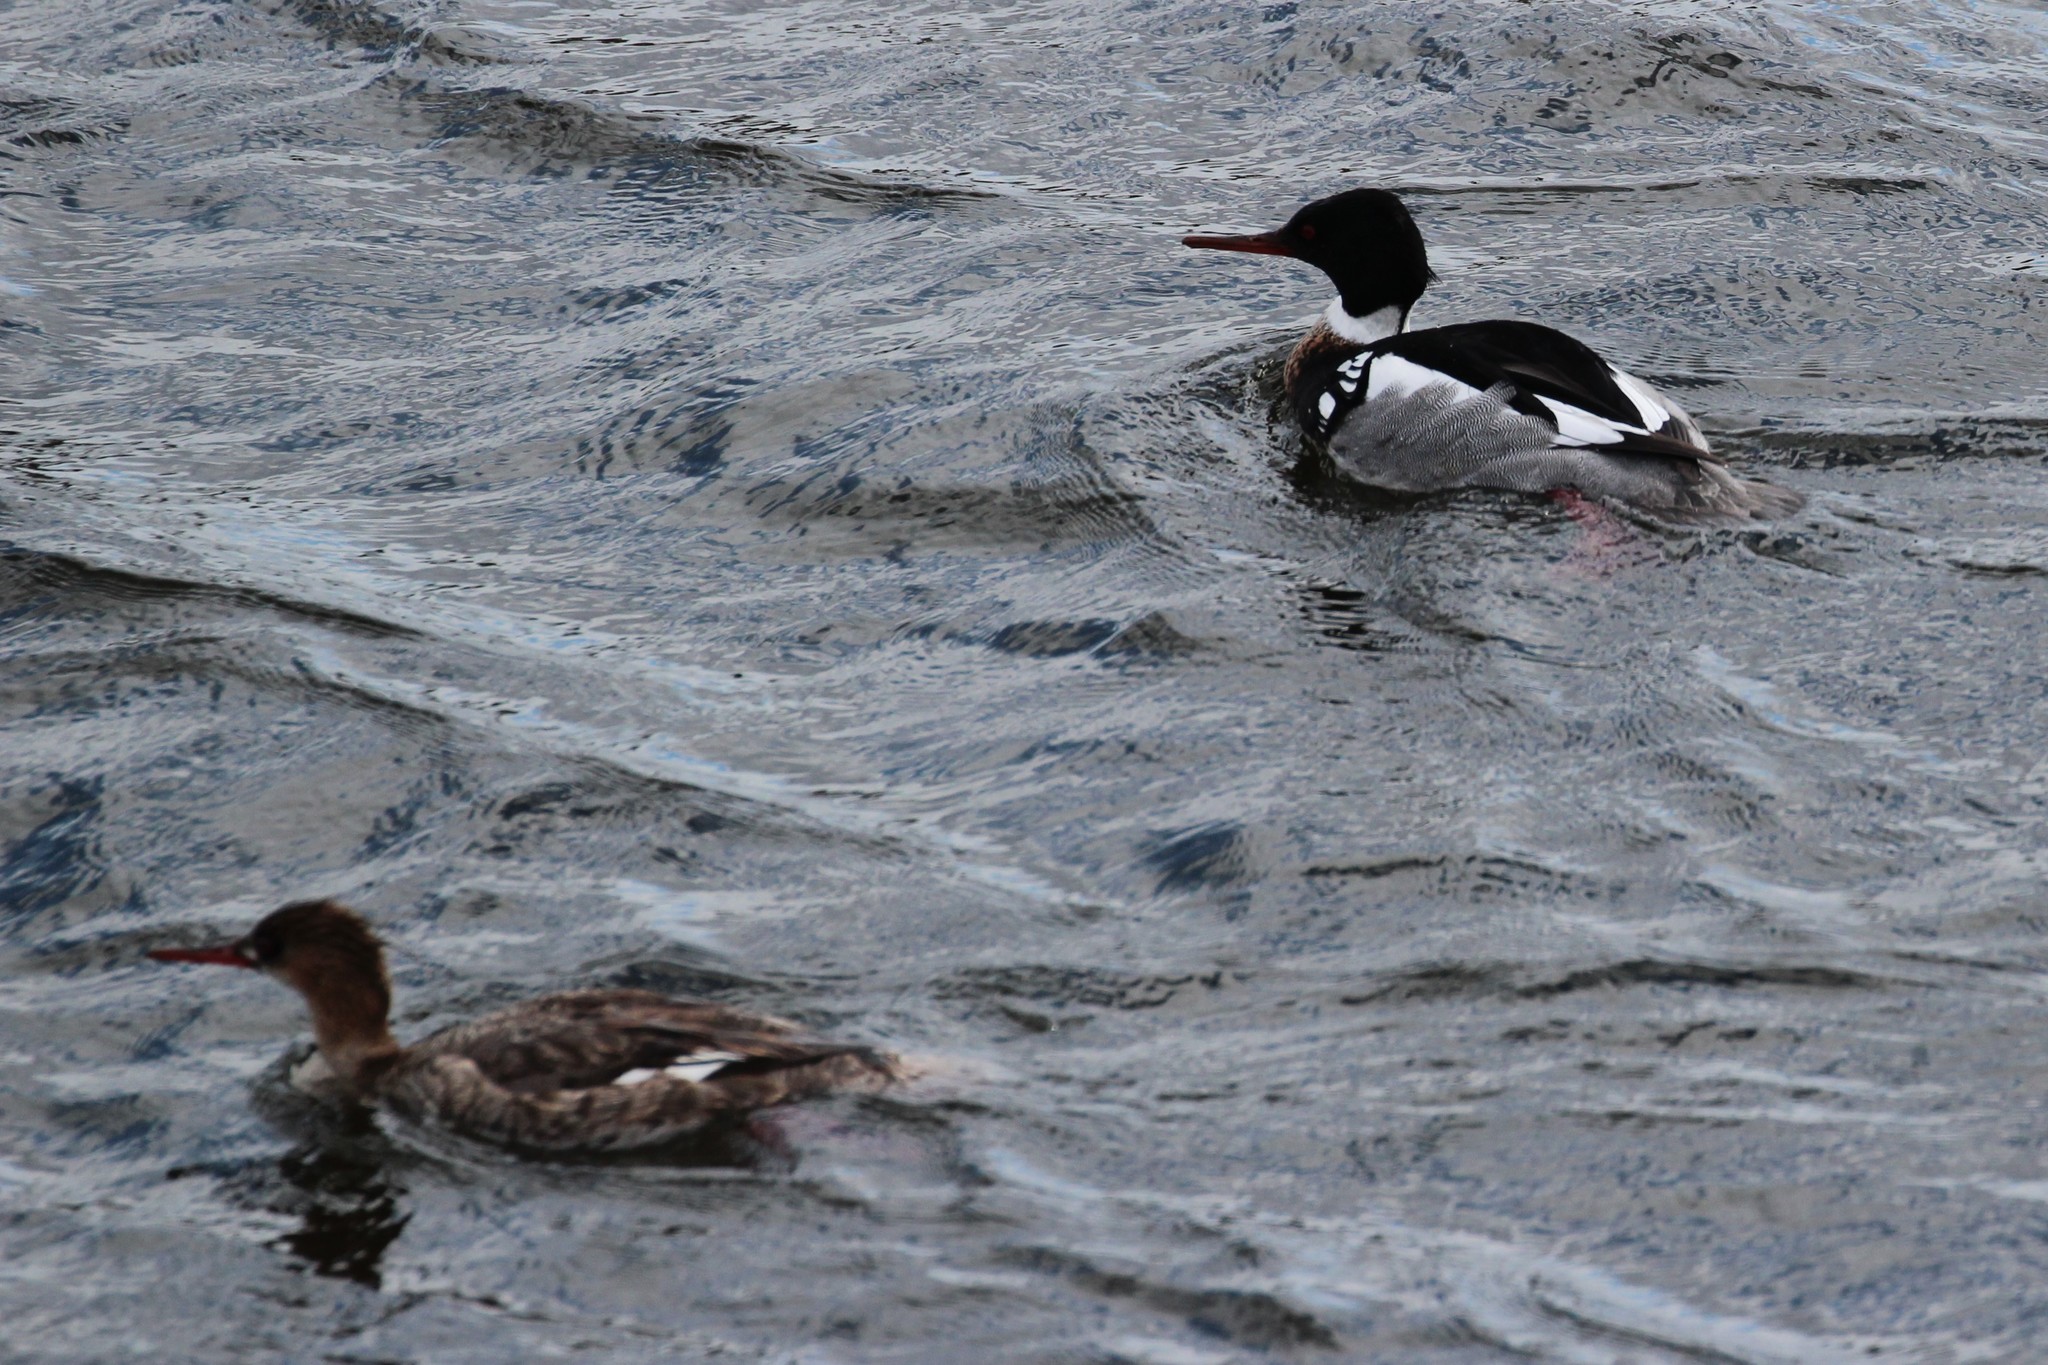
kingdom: Animalia
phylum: Chordata
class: Aves
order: Anseriformes
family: Anatidae
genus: Mergus
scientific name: Mergus serrator
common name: Red-breasted merganser
